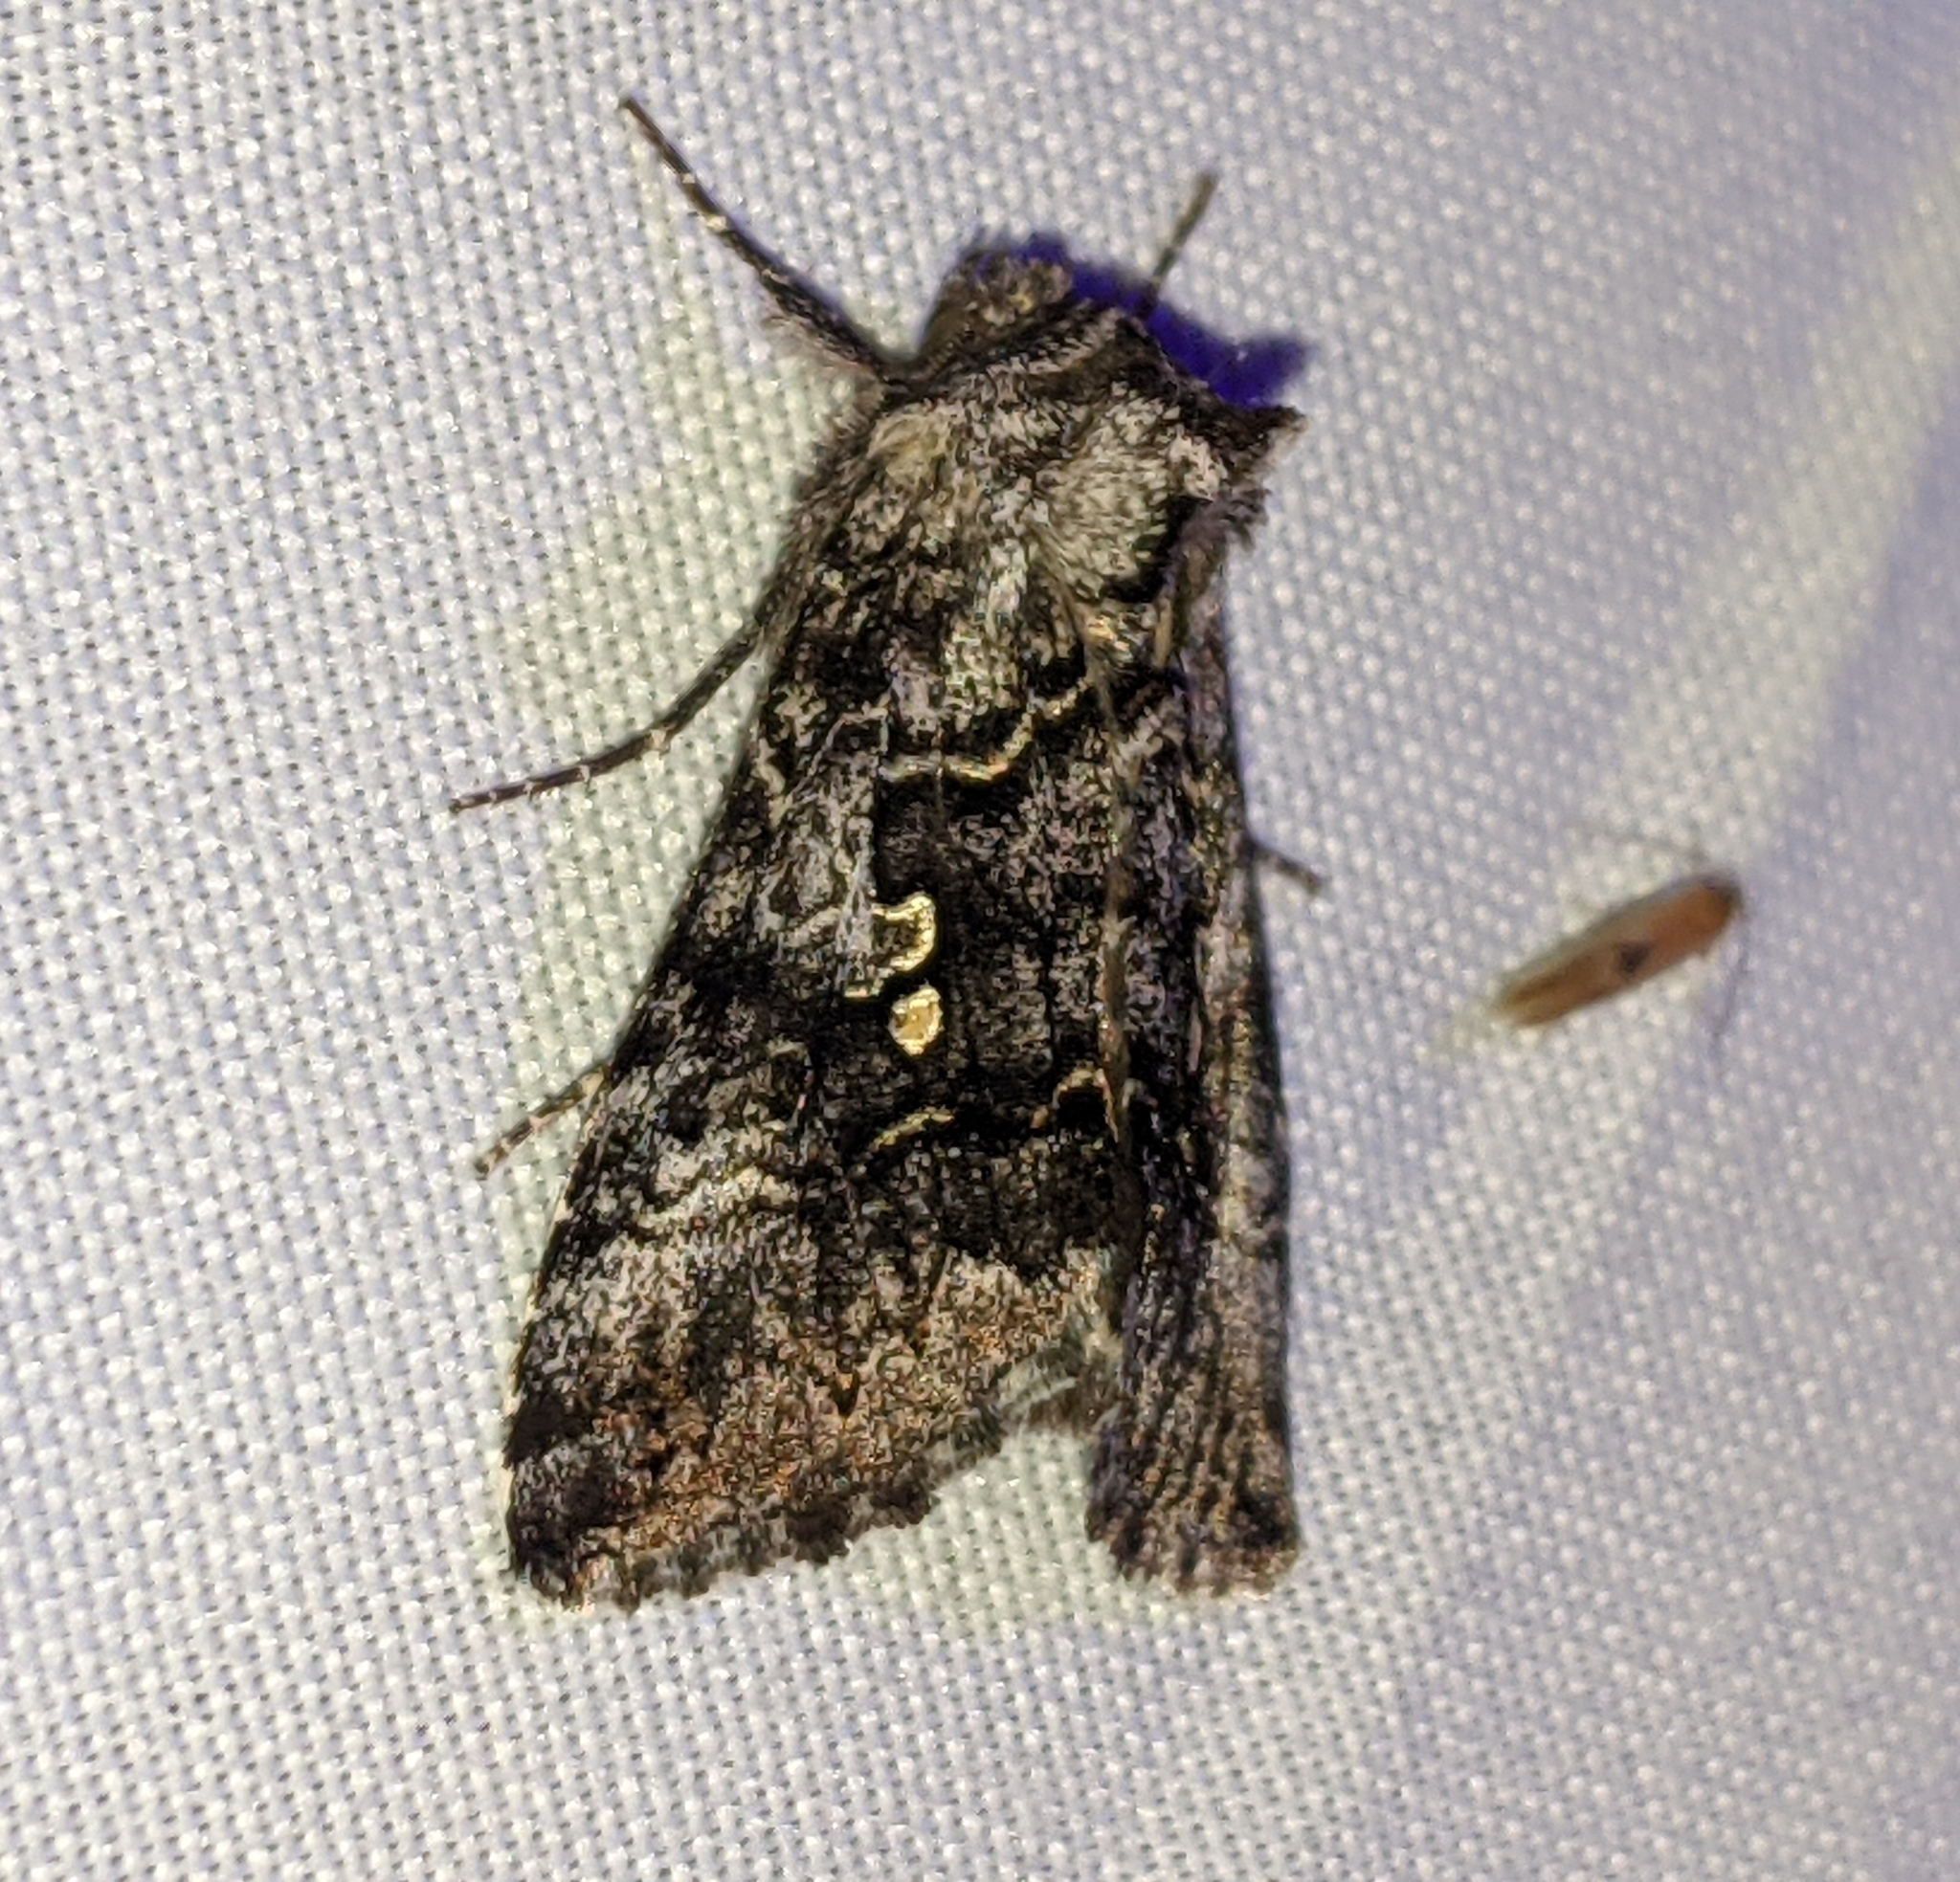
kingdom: Animalia
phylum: Arthropoda
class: Insecta
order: Lepidoptera
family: Noctuidae
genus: Syngrapha
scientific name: Syngrapha celsa
